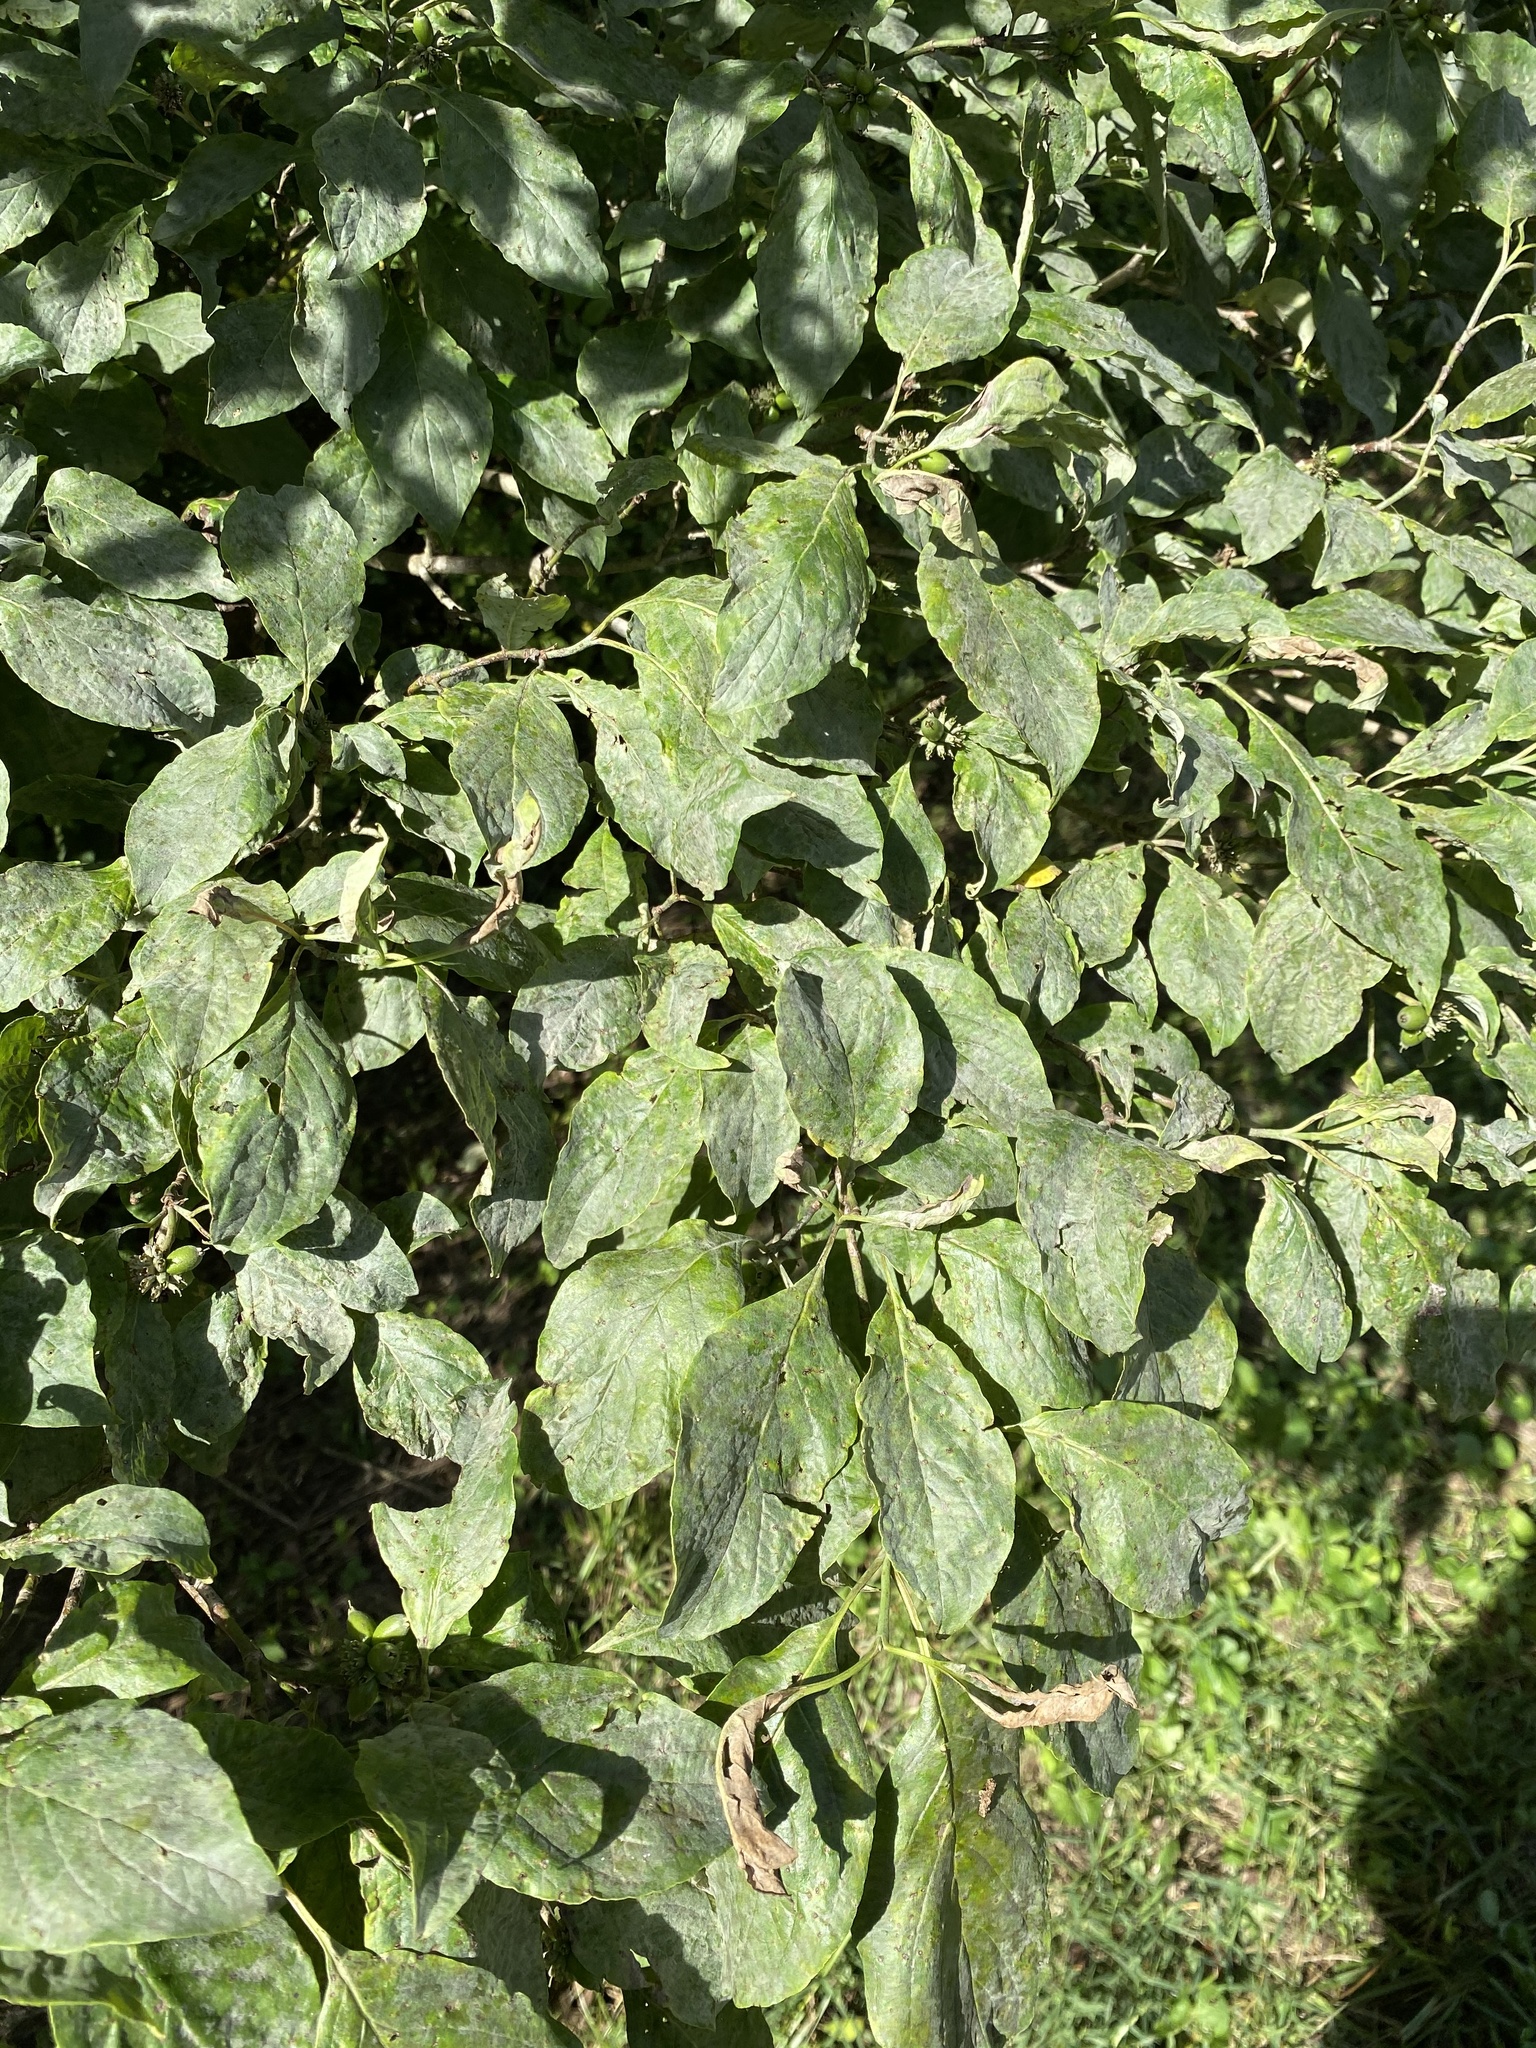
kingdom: Plantae
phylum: Tracheophyta
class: Magnoliopsida
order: Cornales
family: Cornaceae
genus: Cornus
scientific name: Cornus florida
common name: Flowering dogwood
